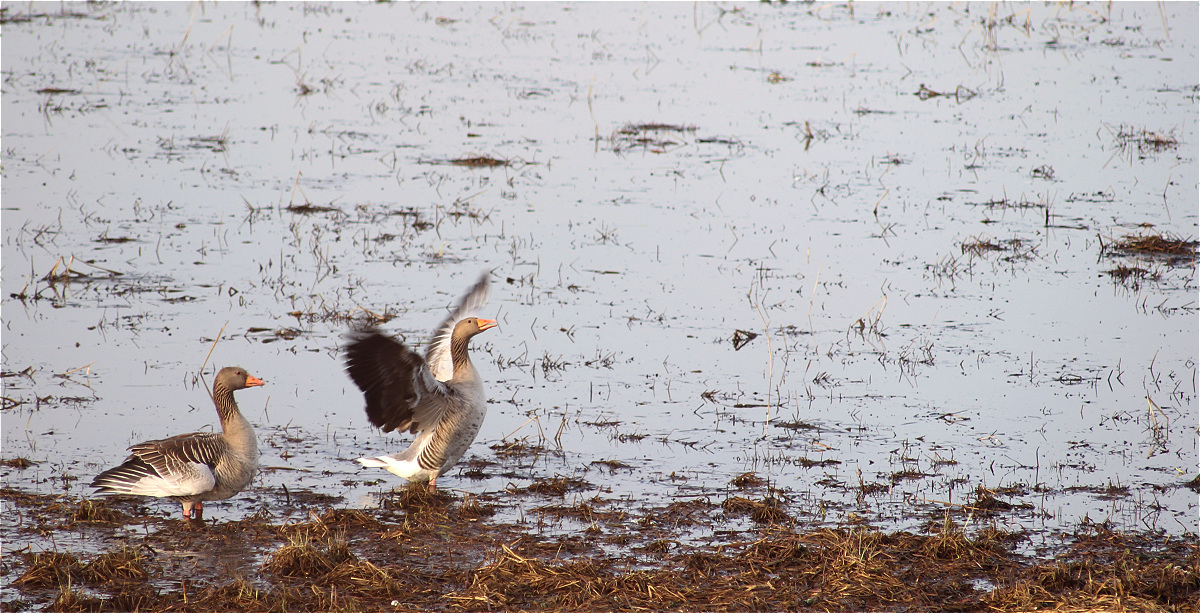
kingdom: Animalia
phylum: Chordata
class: Aves
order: Anseriformes
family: Anatidae
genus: Anser
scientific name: Anser anser
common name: Greylag goose
